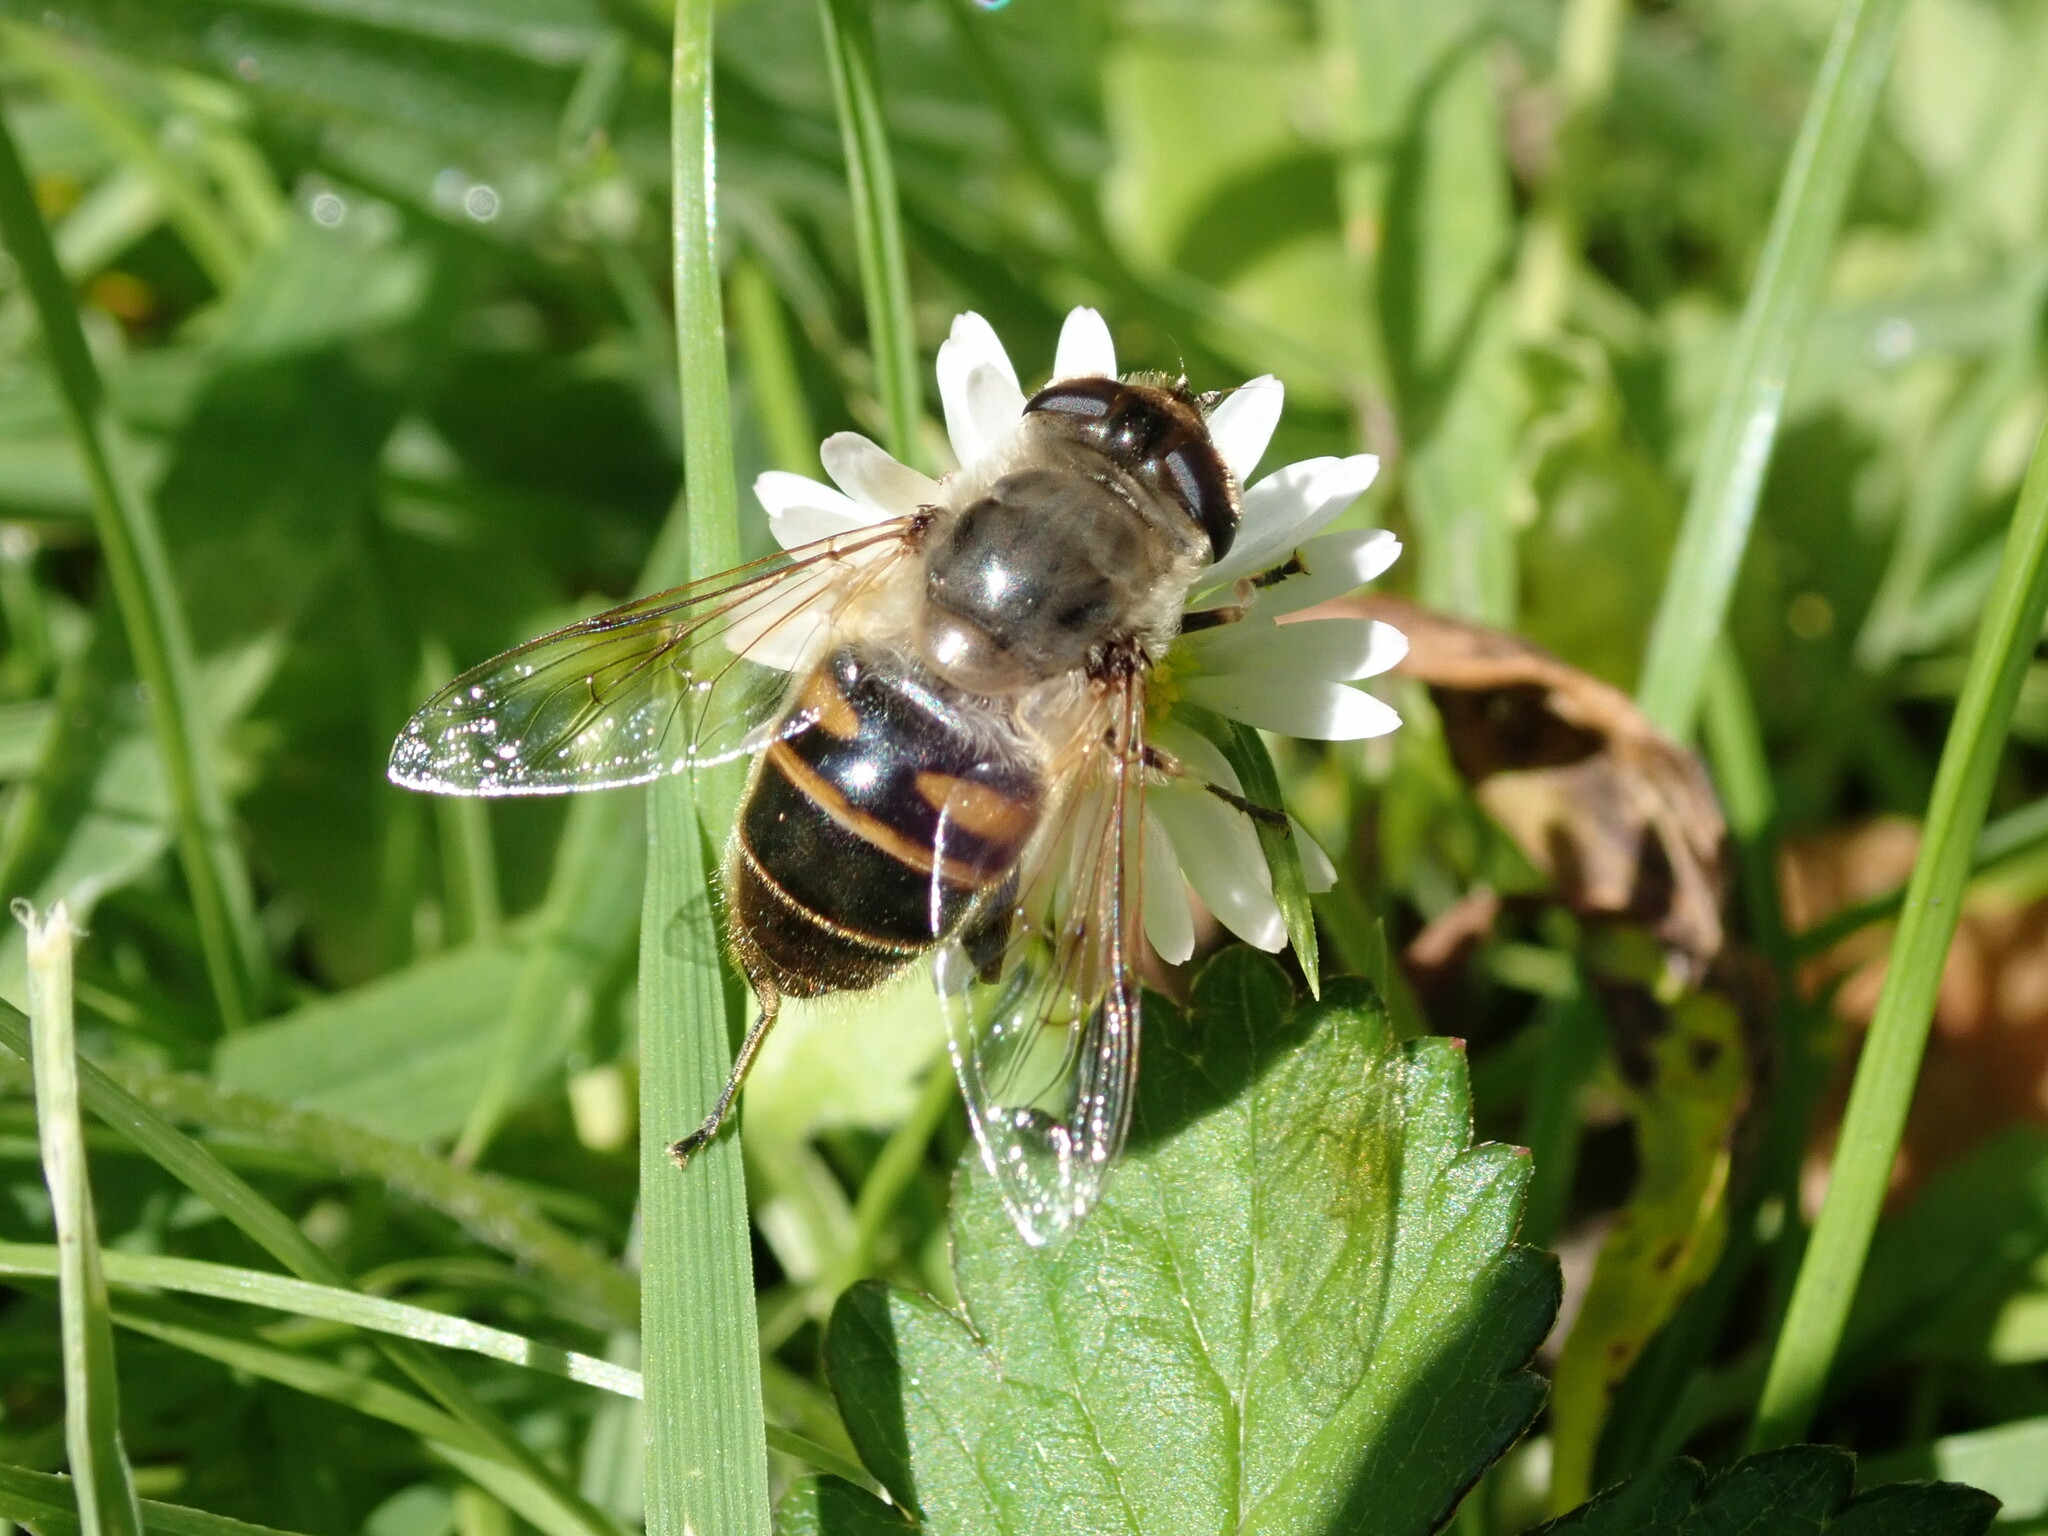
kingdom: Animalia
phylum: Arthropoda
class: Insecta
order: Diptera
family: Syrphidae
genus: Eristalis
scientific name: Eristalis tenax
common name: Drone fly
